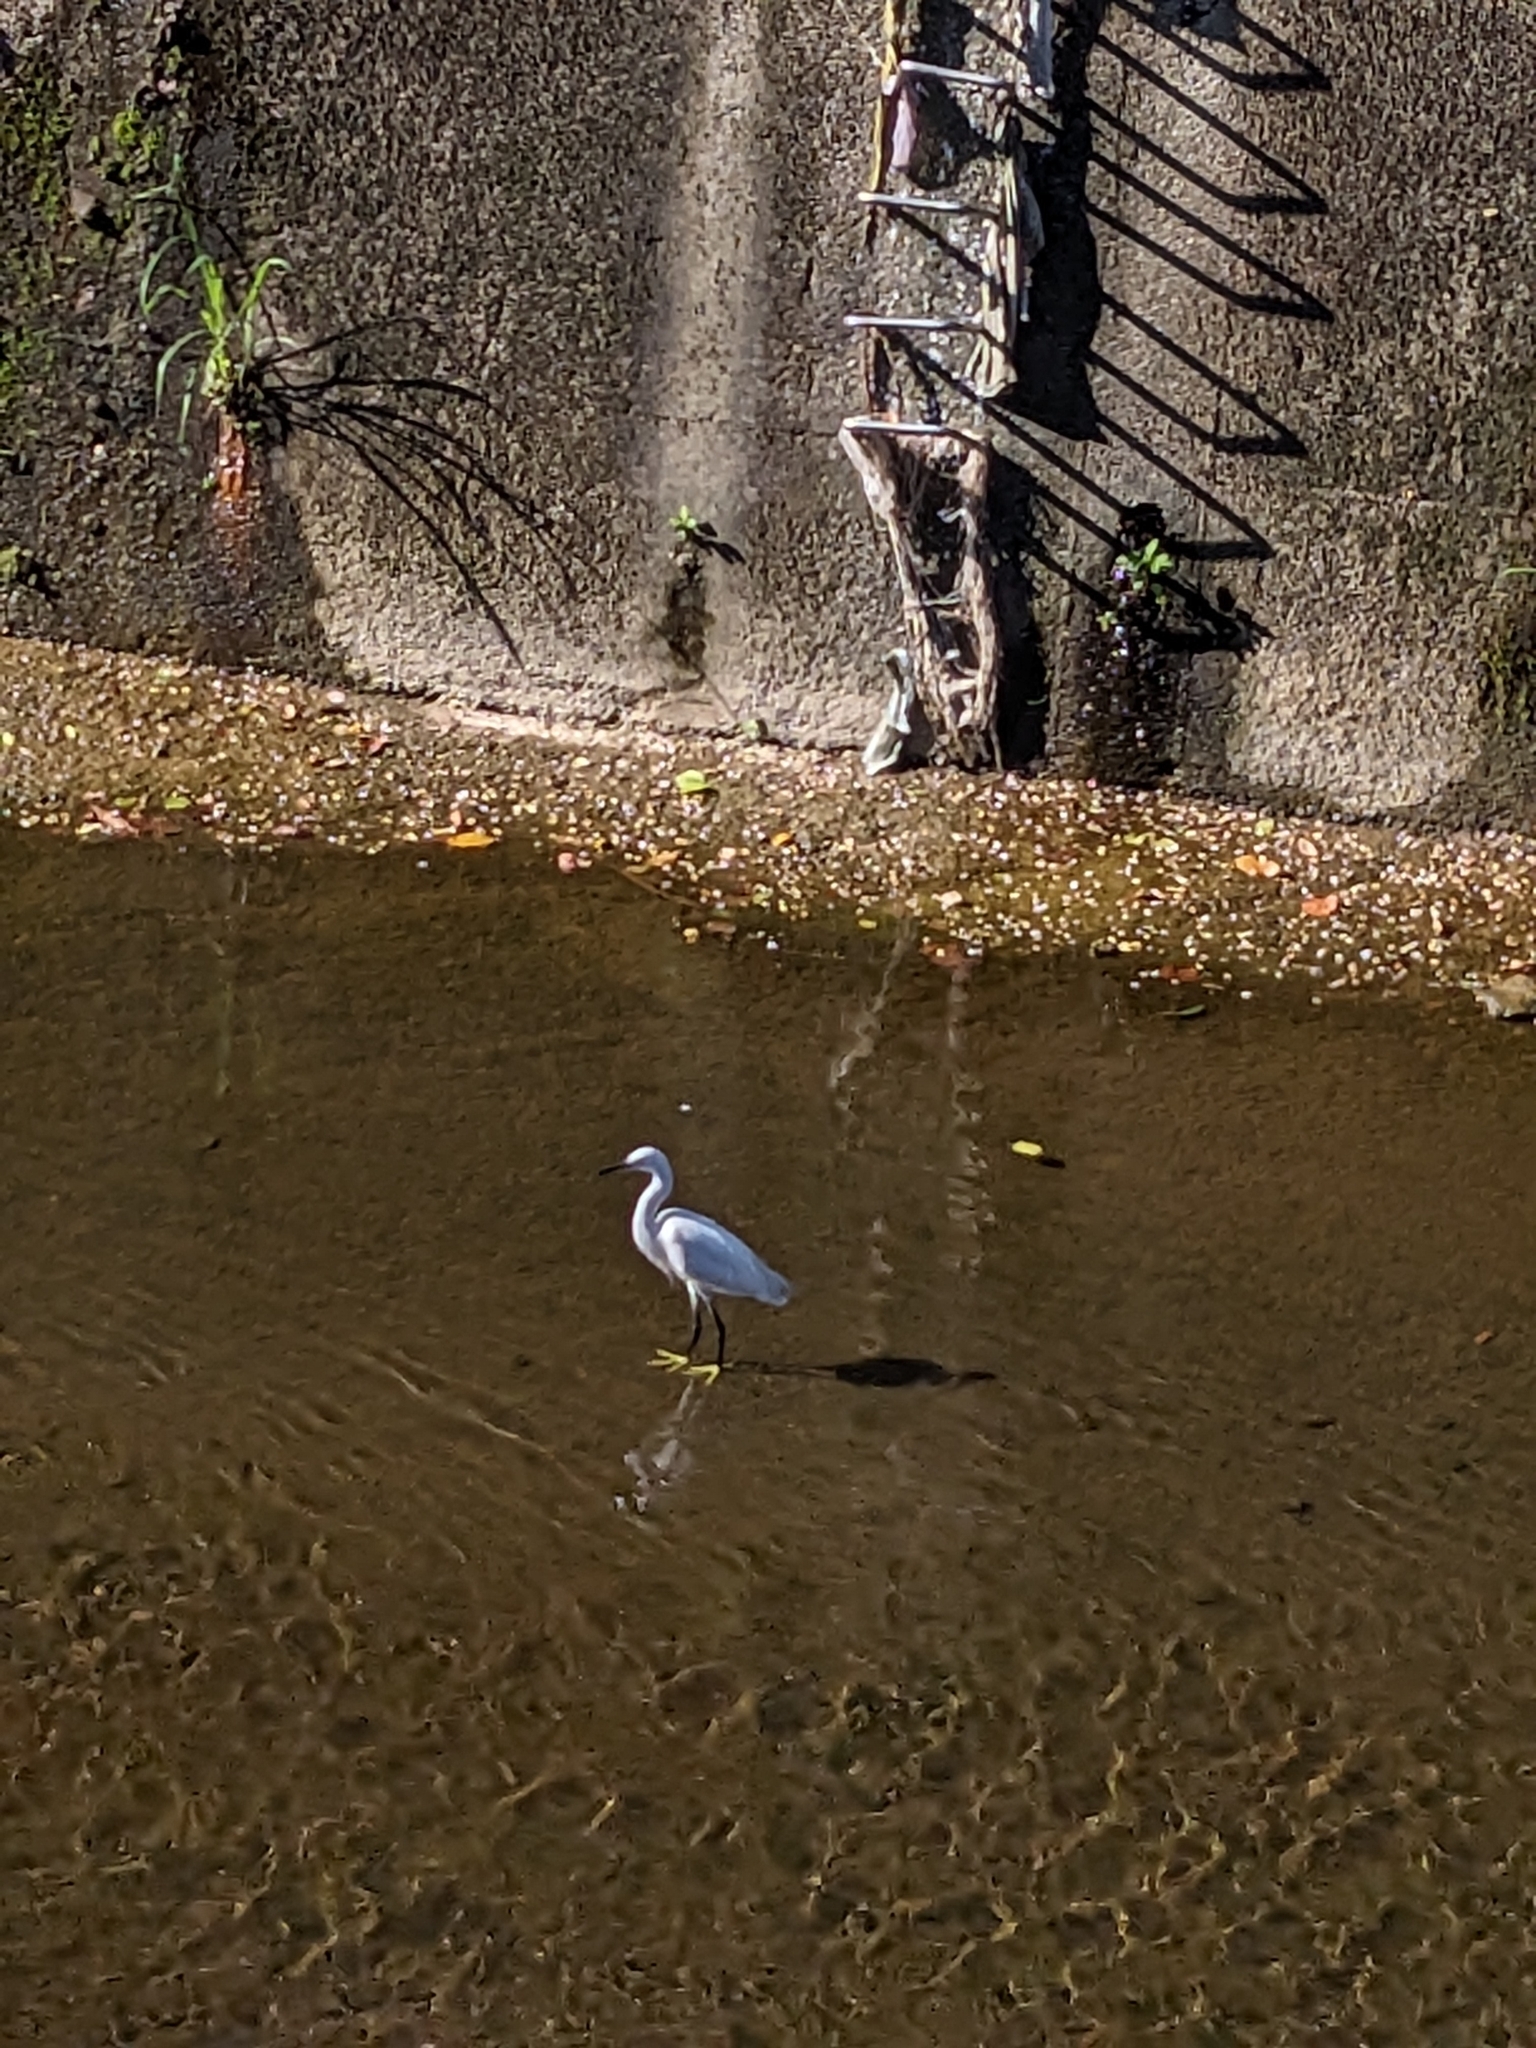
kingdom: Animalia
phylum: Chordata
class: Aves
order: Pelecaniformes
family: Ardeidae
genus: Egretta
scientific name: Egretta garzetta
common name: Little egret
